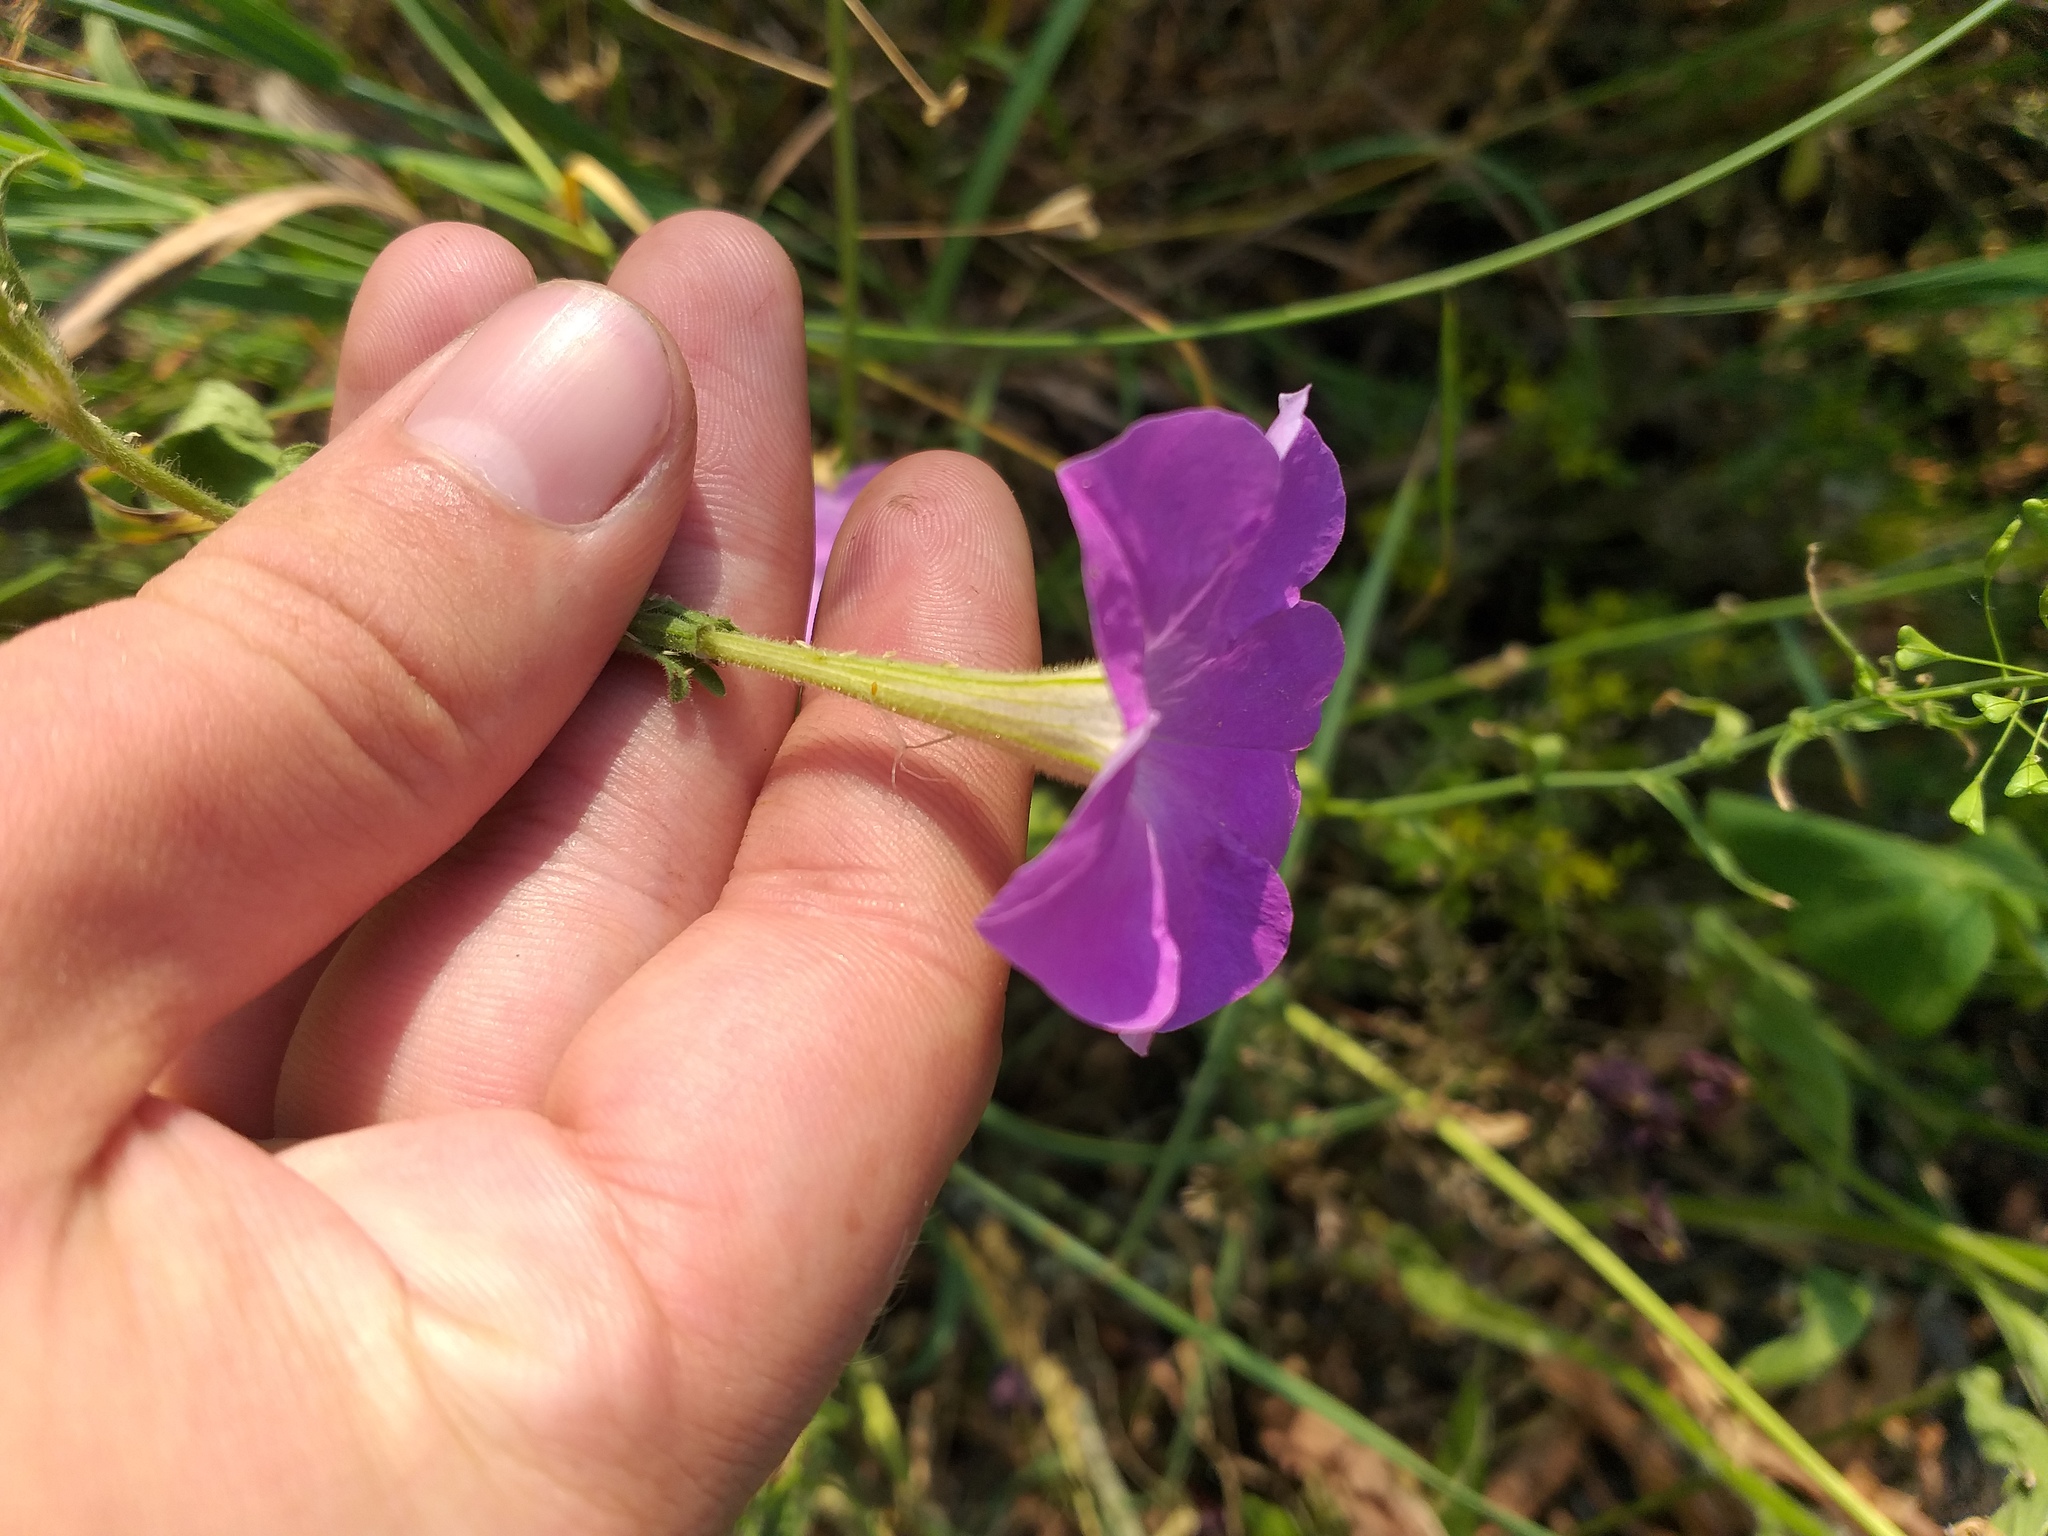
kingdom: Plantae
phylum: Tracheophyta
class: Magnoliopsida
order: Solanales
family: Solanaceae
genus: Petunia
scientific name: Petunia atkinsiana
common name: Petunia
